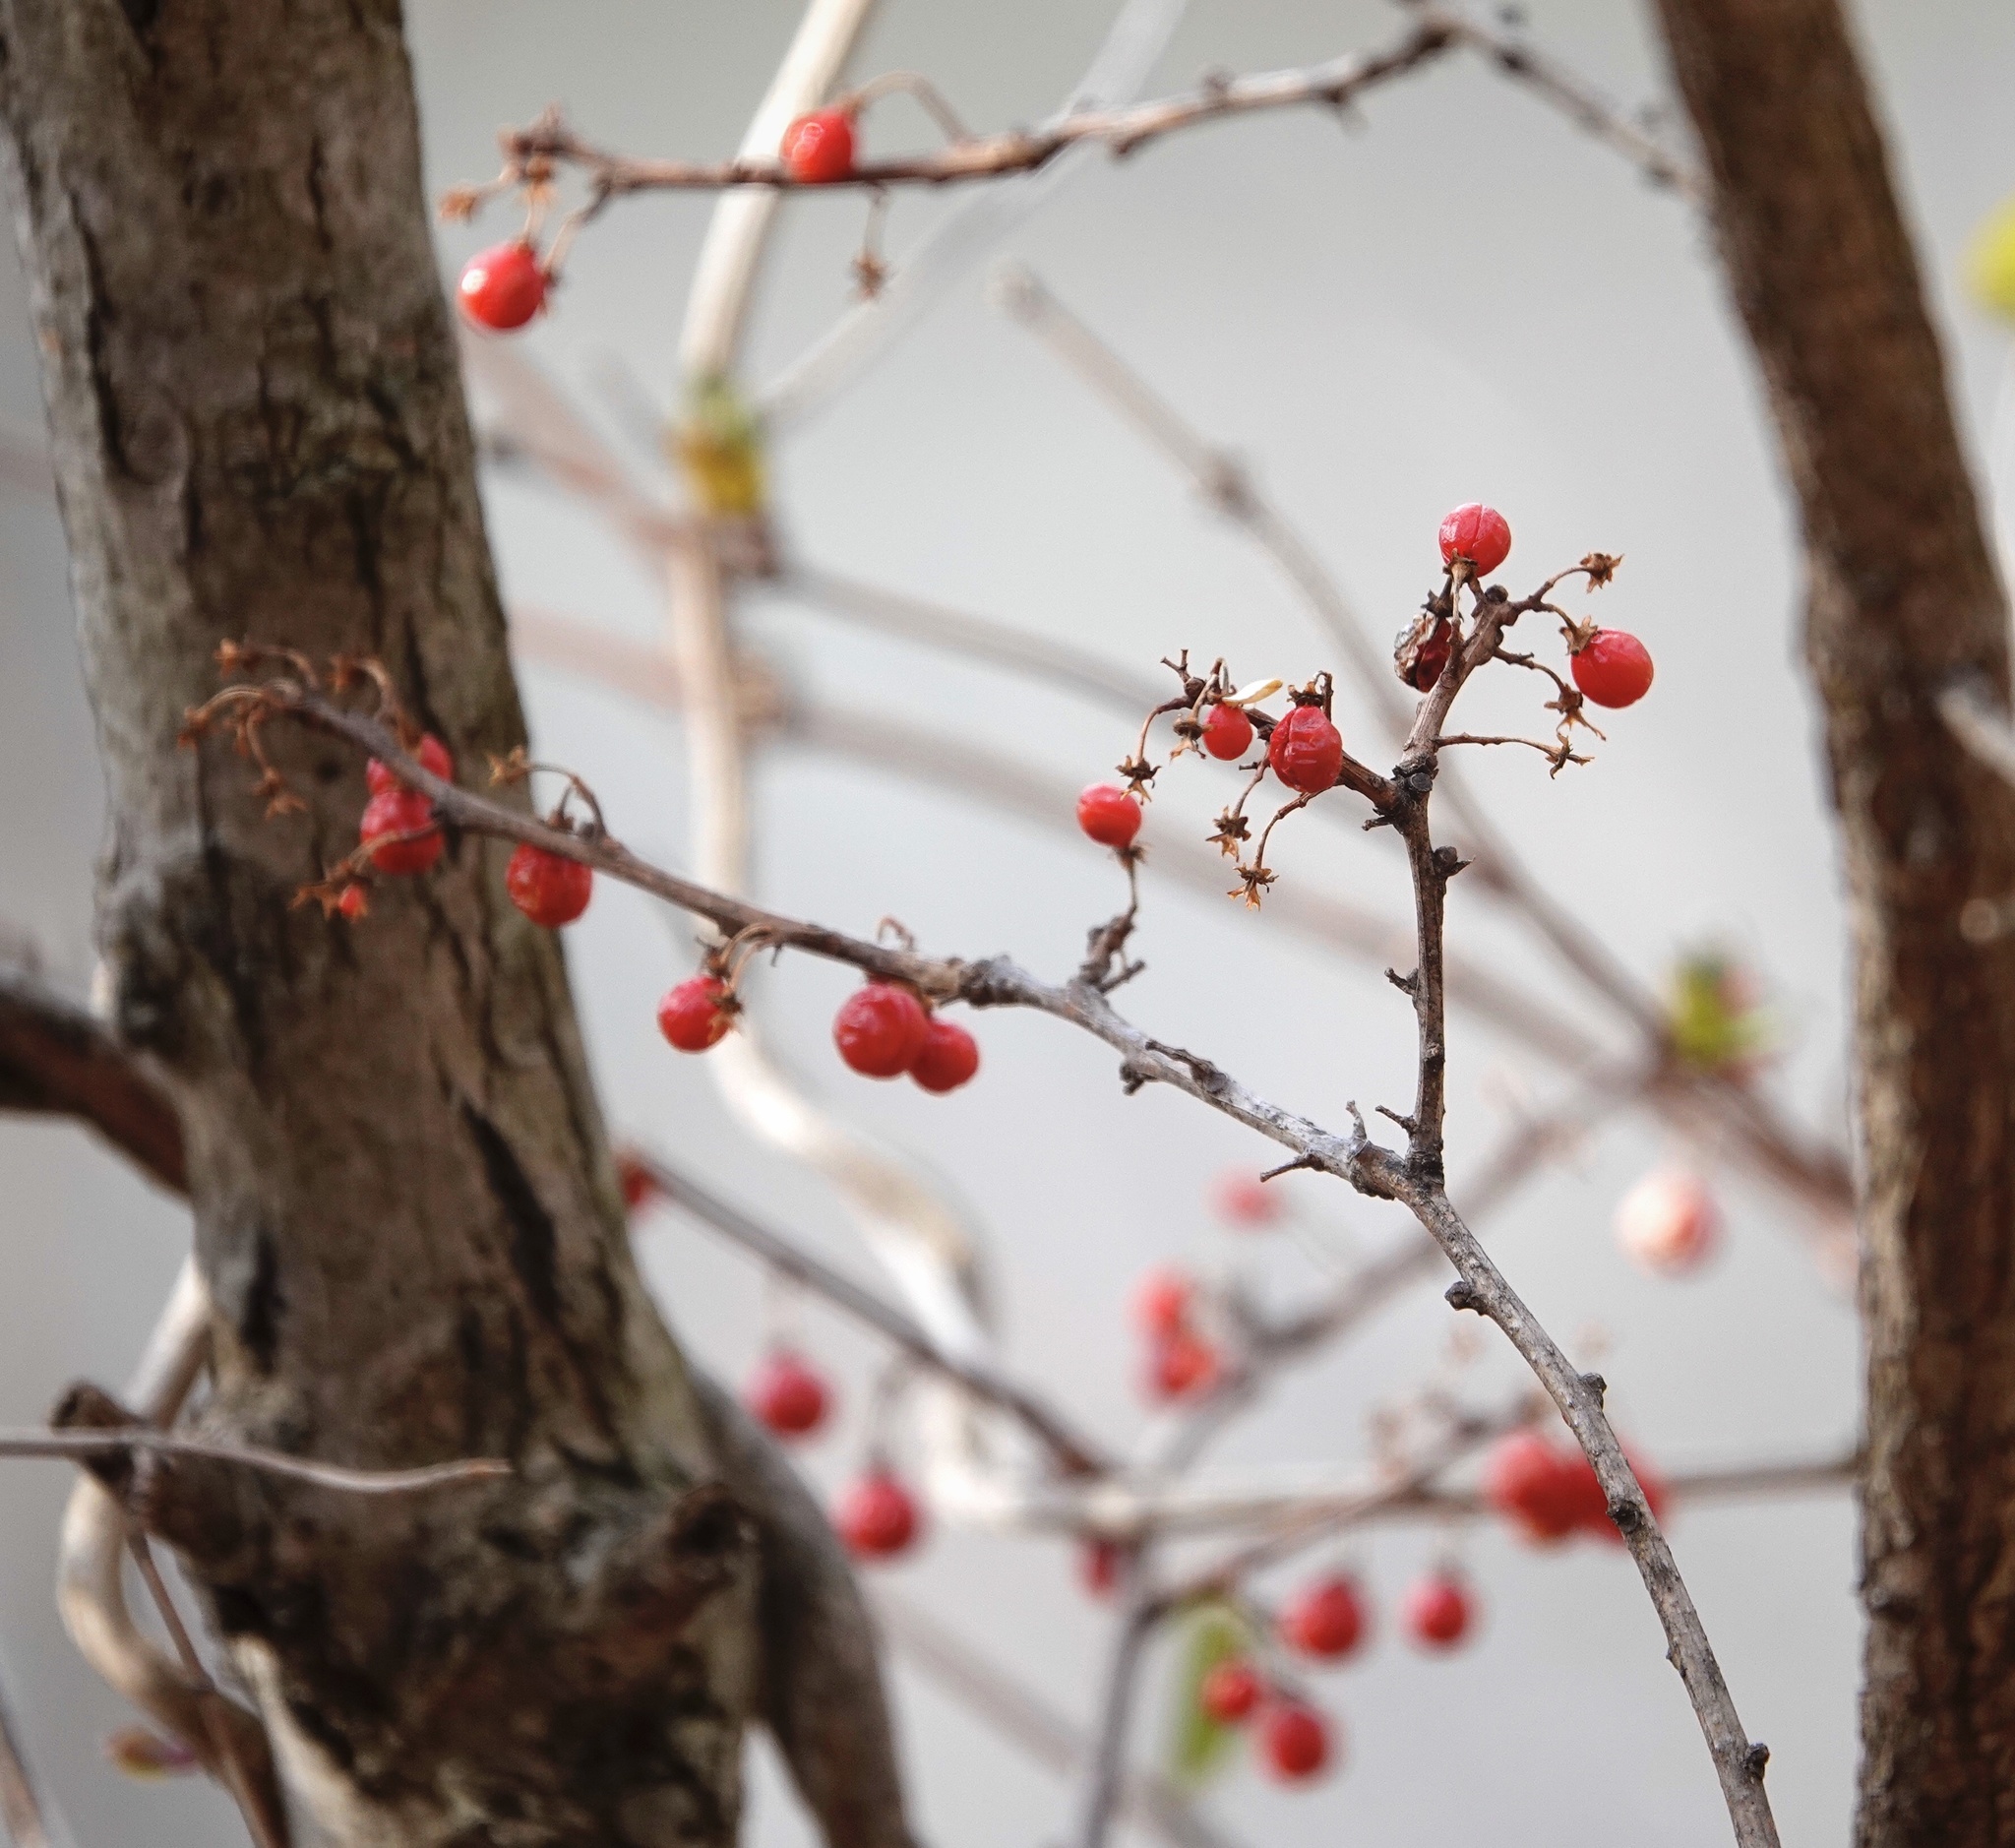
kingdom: Plantae
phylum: Tracheophyta
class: Magnoliopsida
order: Celastrales
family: Celastraceae
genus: Celastrus
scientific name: Celastrus orbiculatus
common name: Oriental bittersweet
